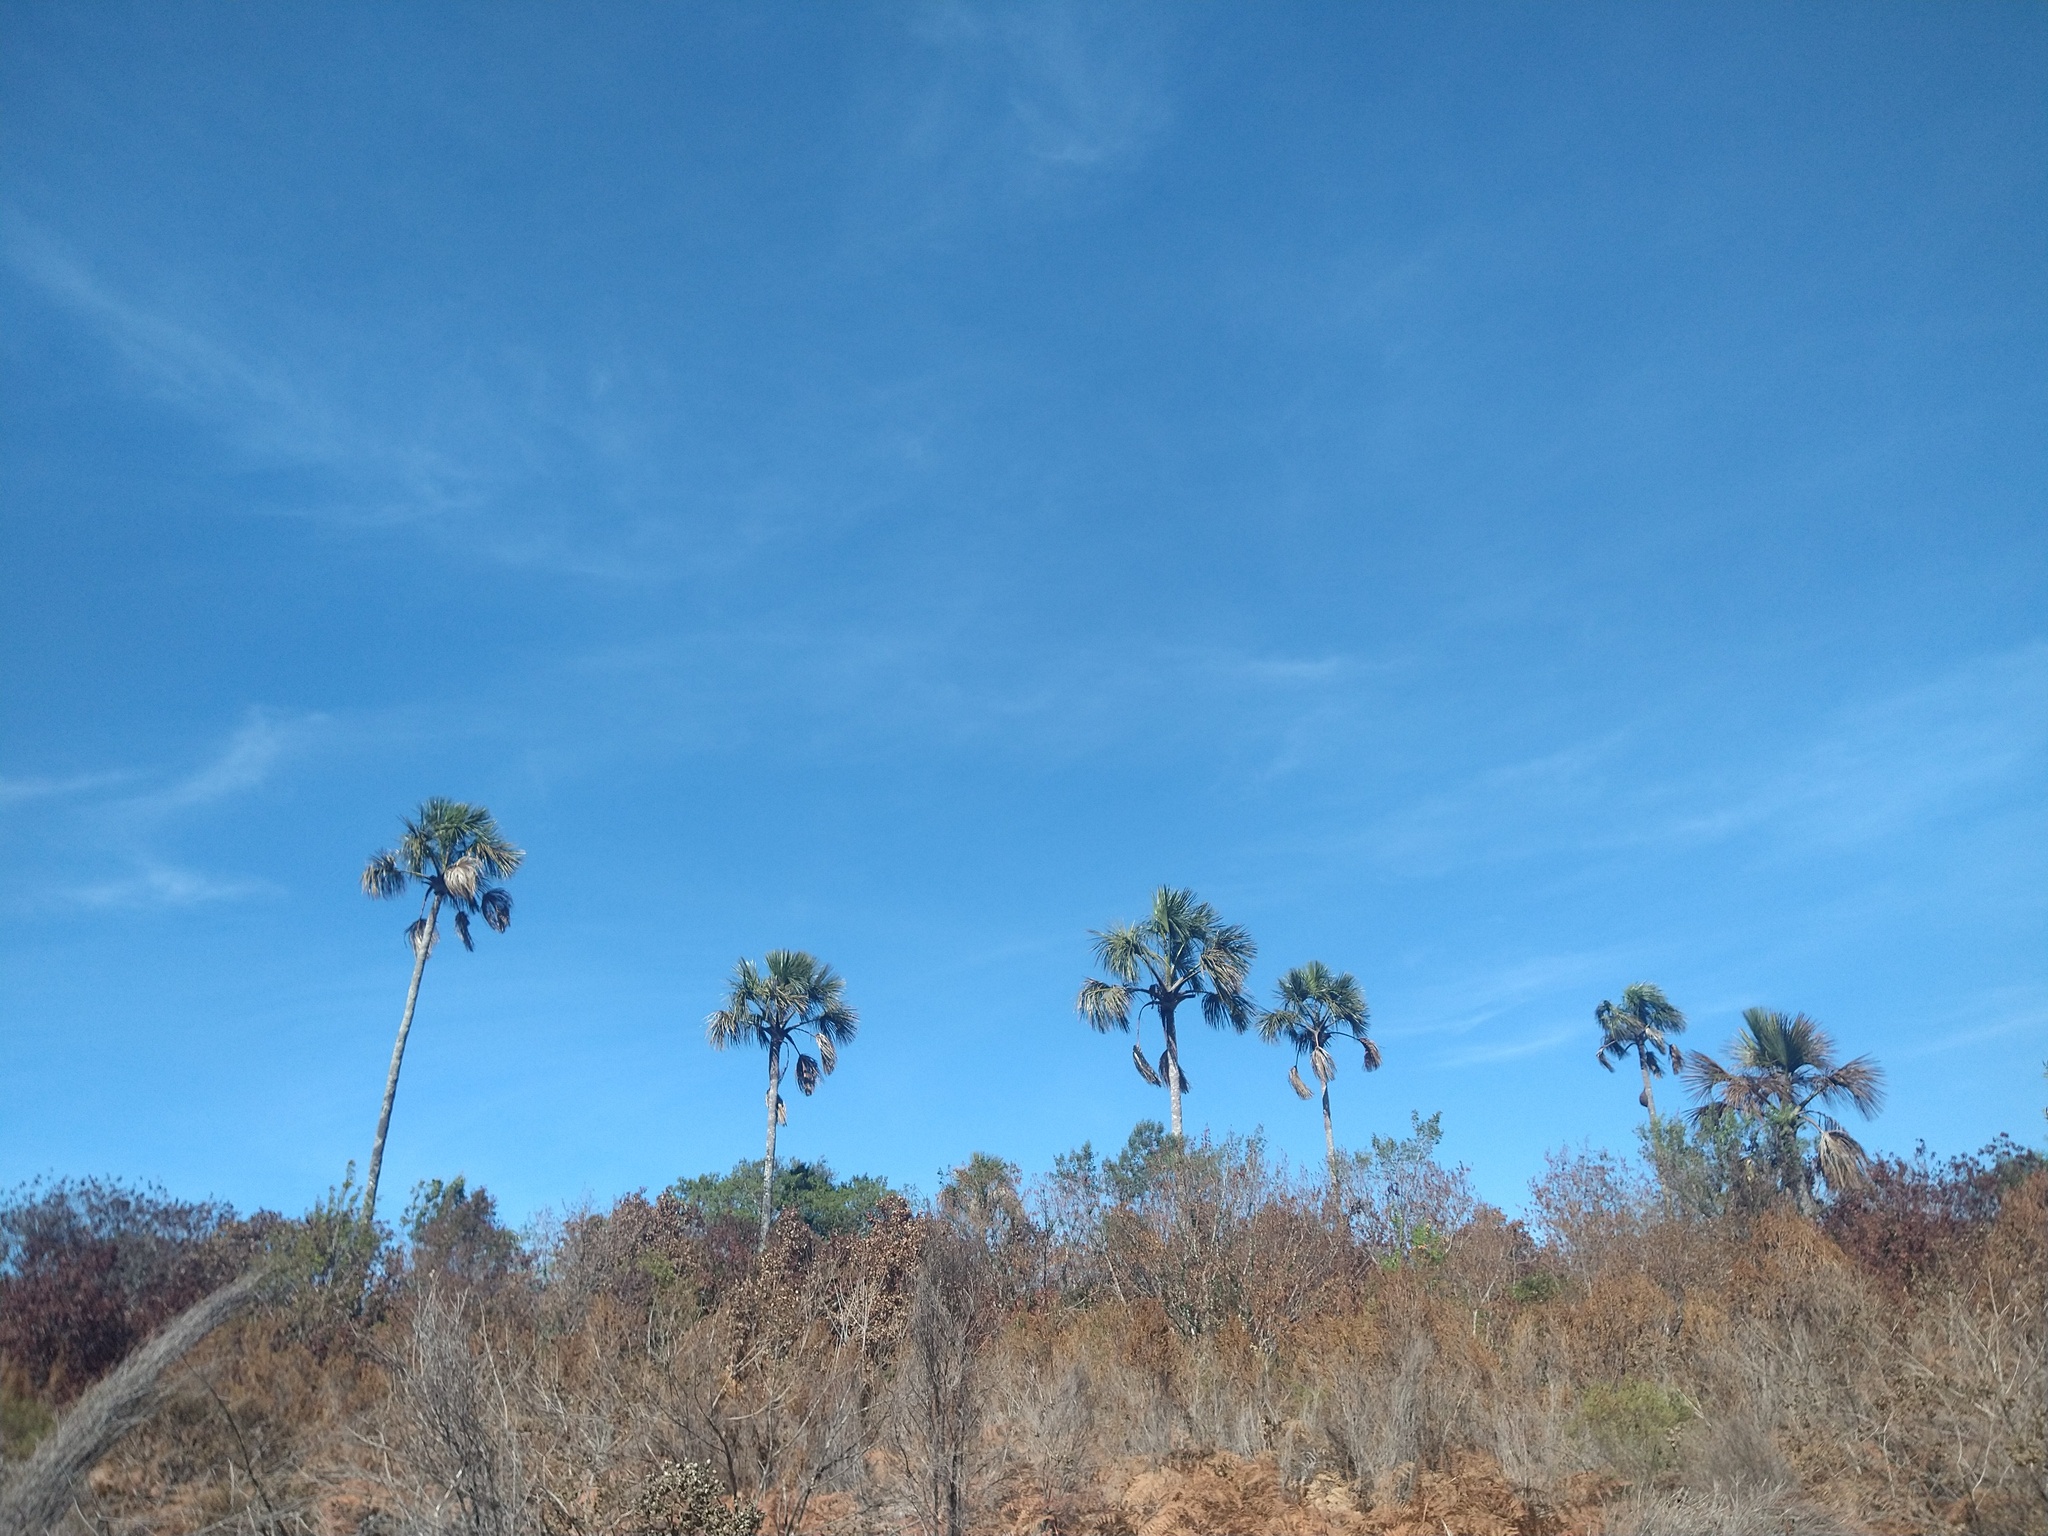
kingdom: Plantae
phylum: Tracheophyta
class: Liliopsida
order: Arecales
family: Arecaceae
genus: Mauritia
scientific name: Mauritia flexuosa
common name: Tree-of-life
